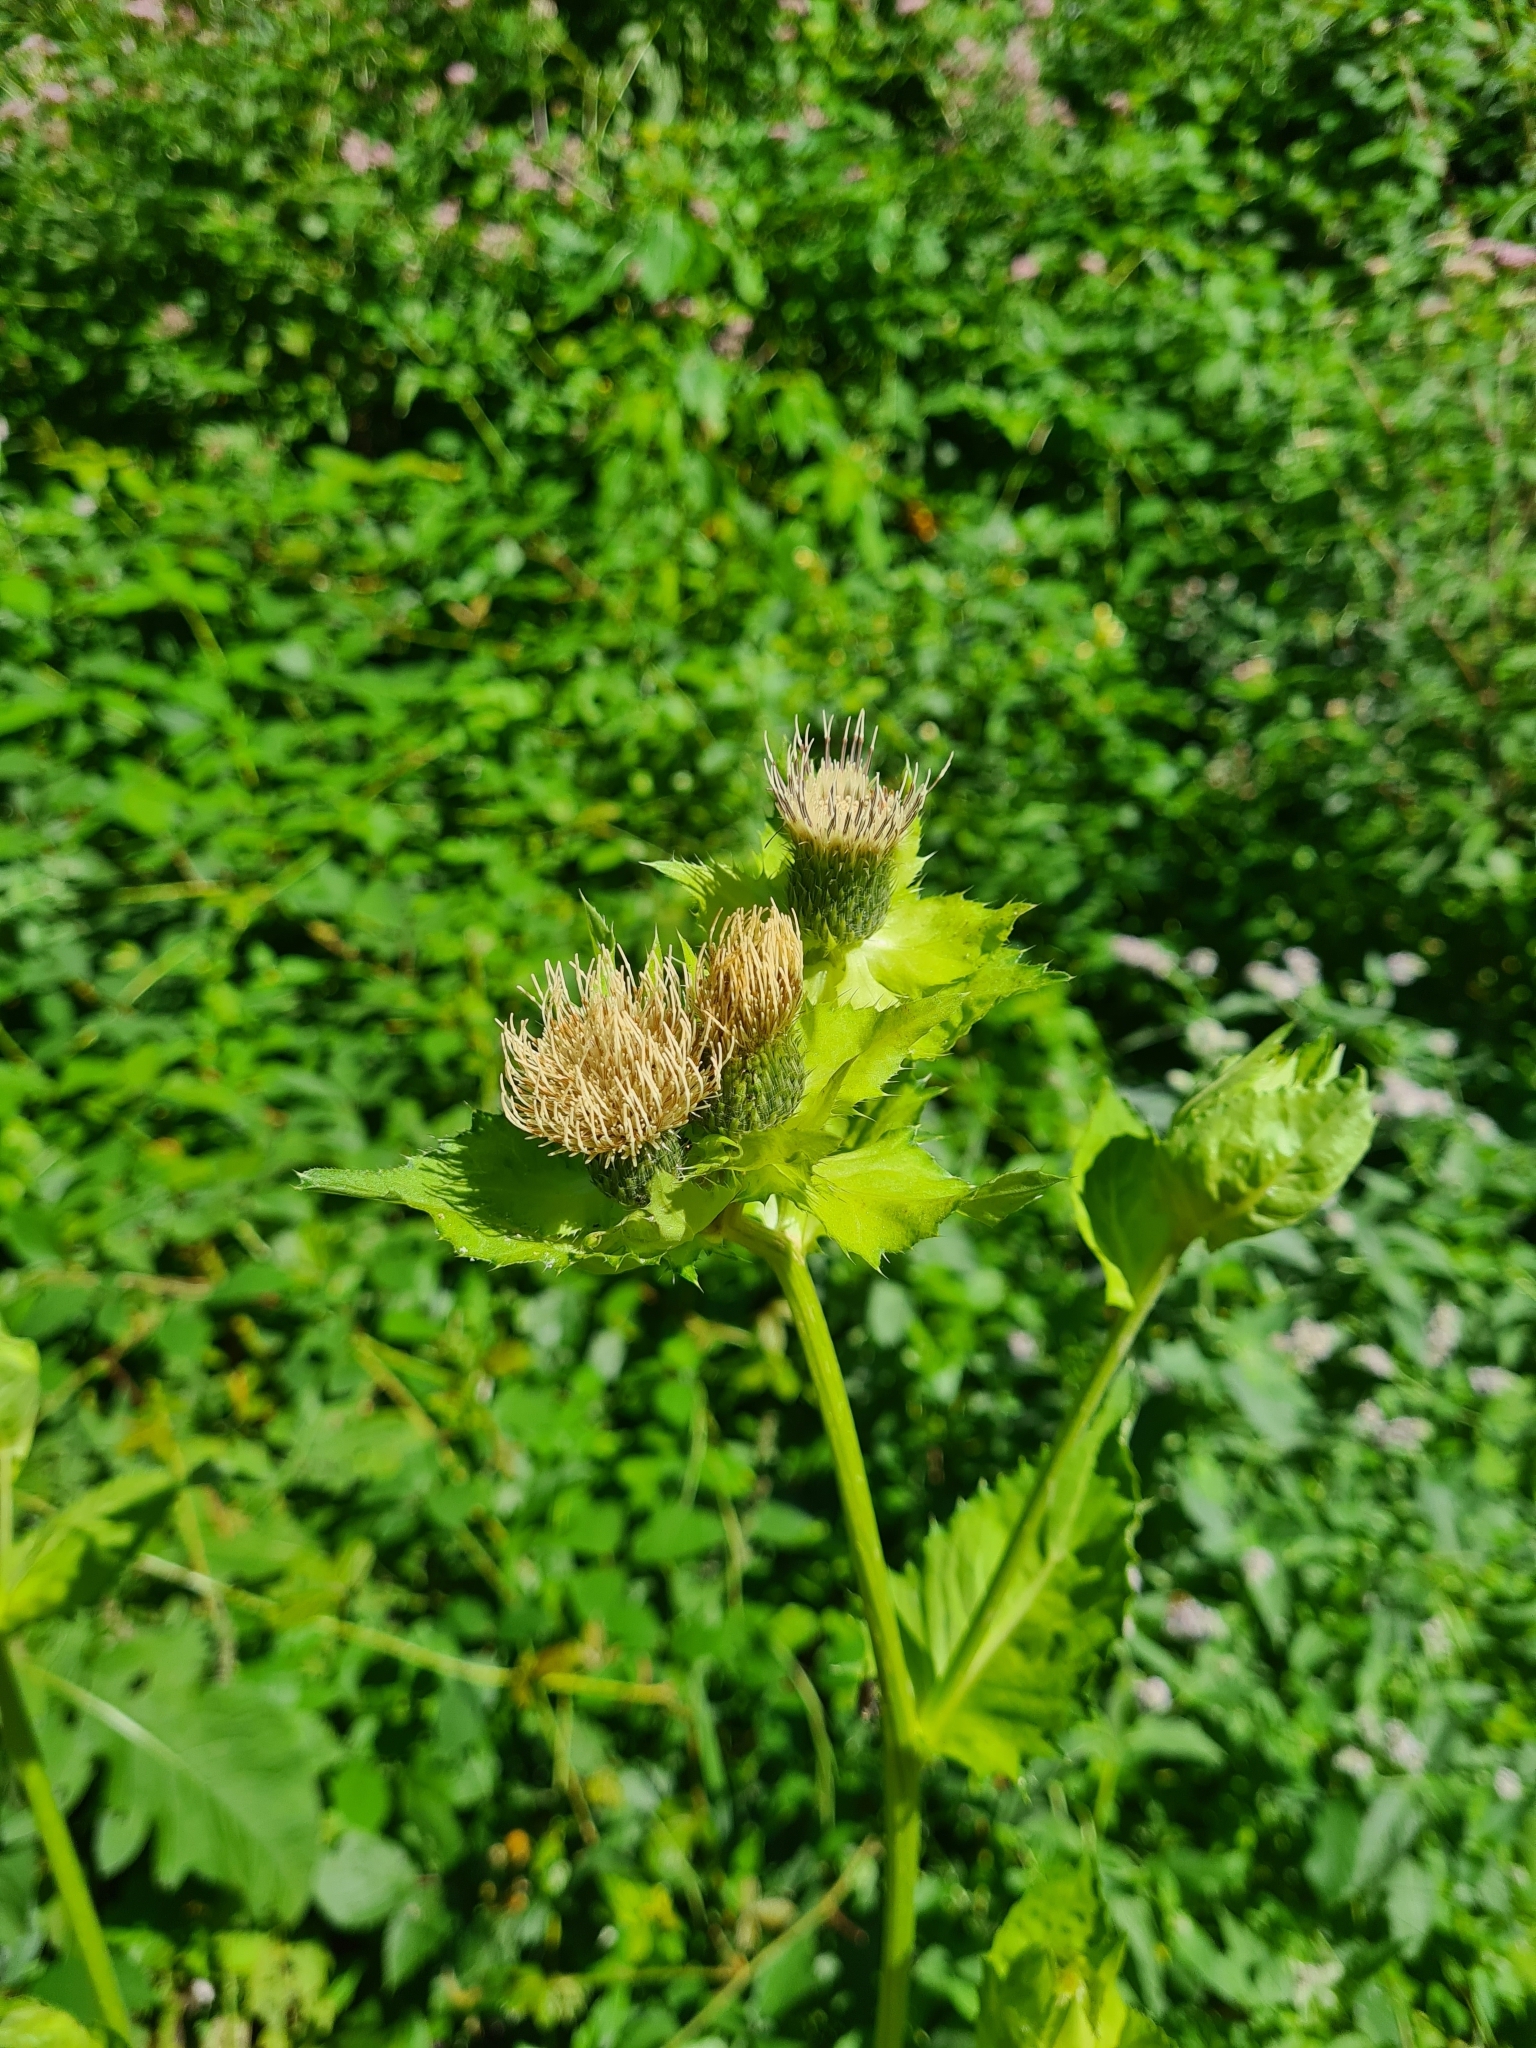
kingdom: Plantae
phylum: Tracheophyta
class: Magnoliopsida
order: Asterales
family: Asteraceae
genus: Cirsium
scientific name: Cirsium oleraceum
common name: Cabbage thistle
